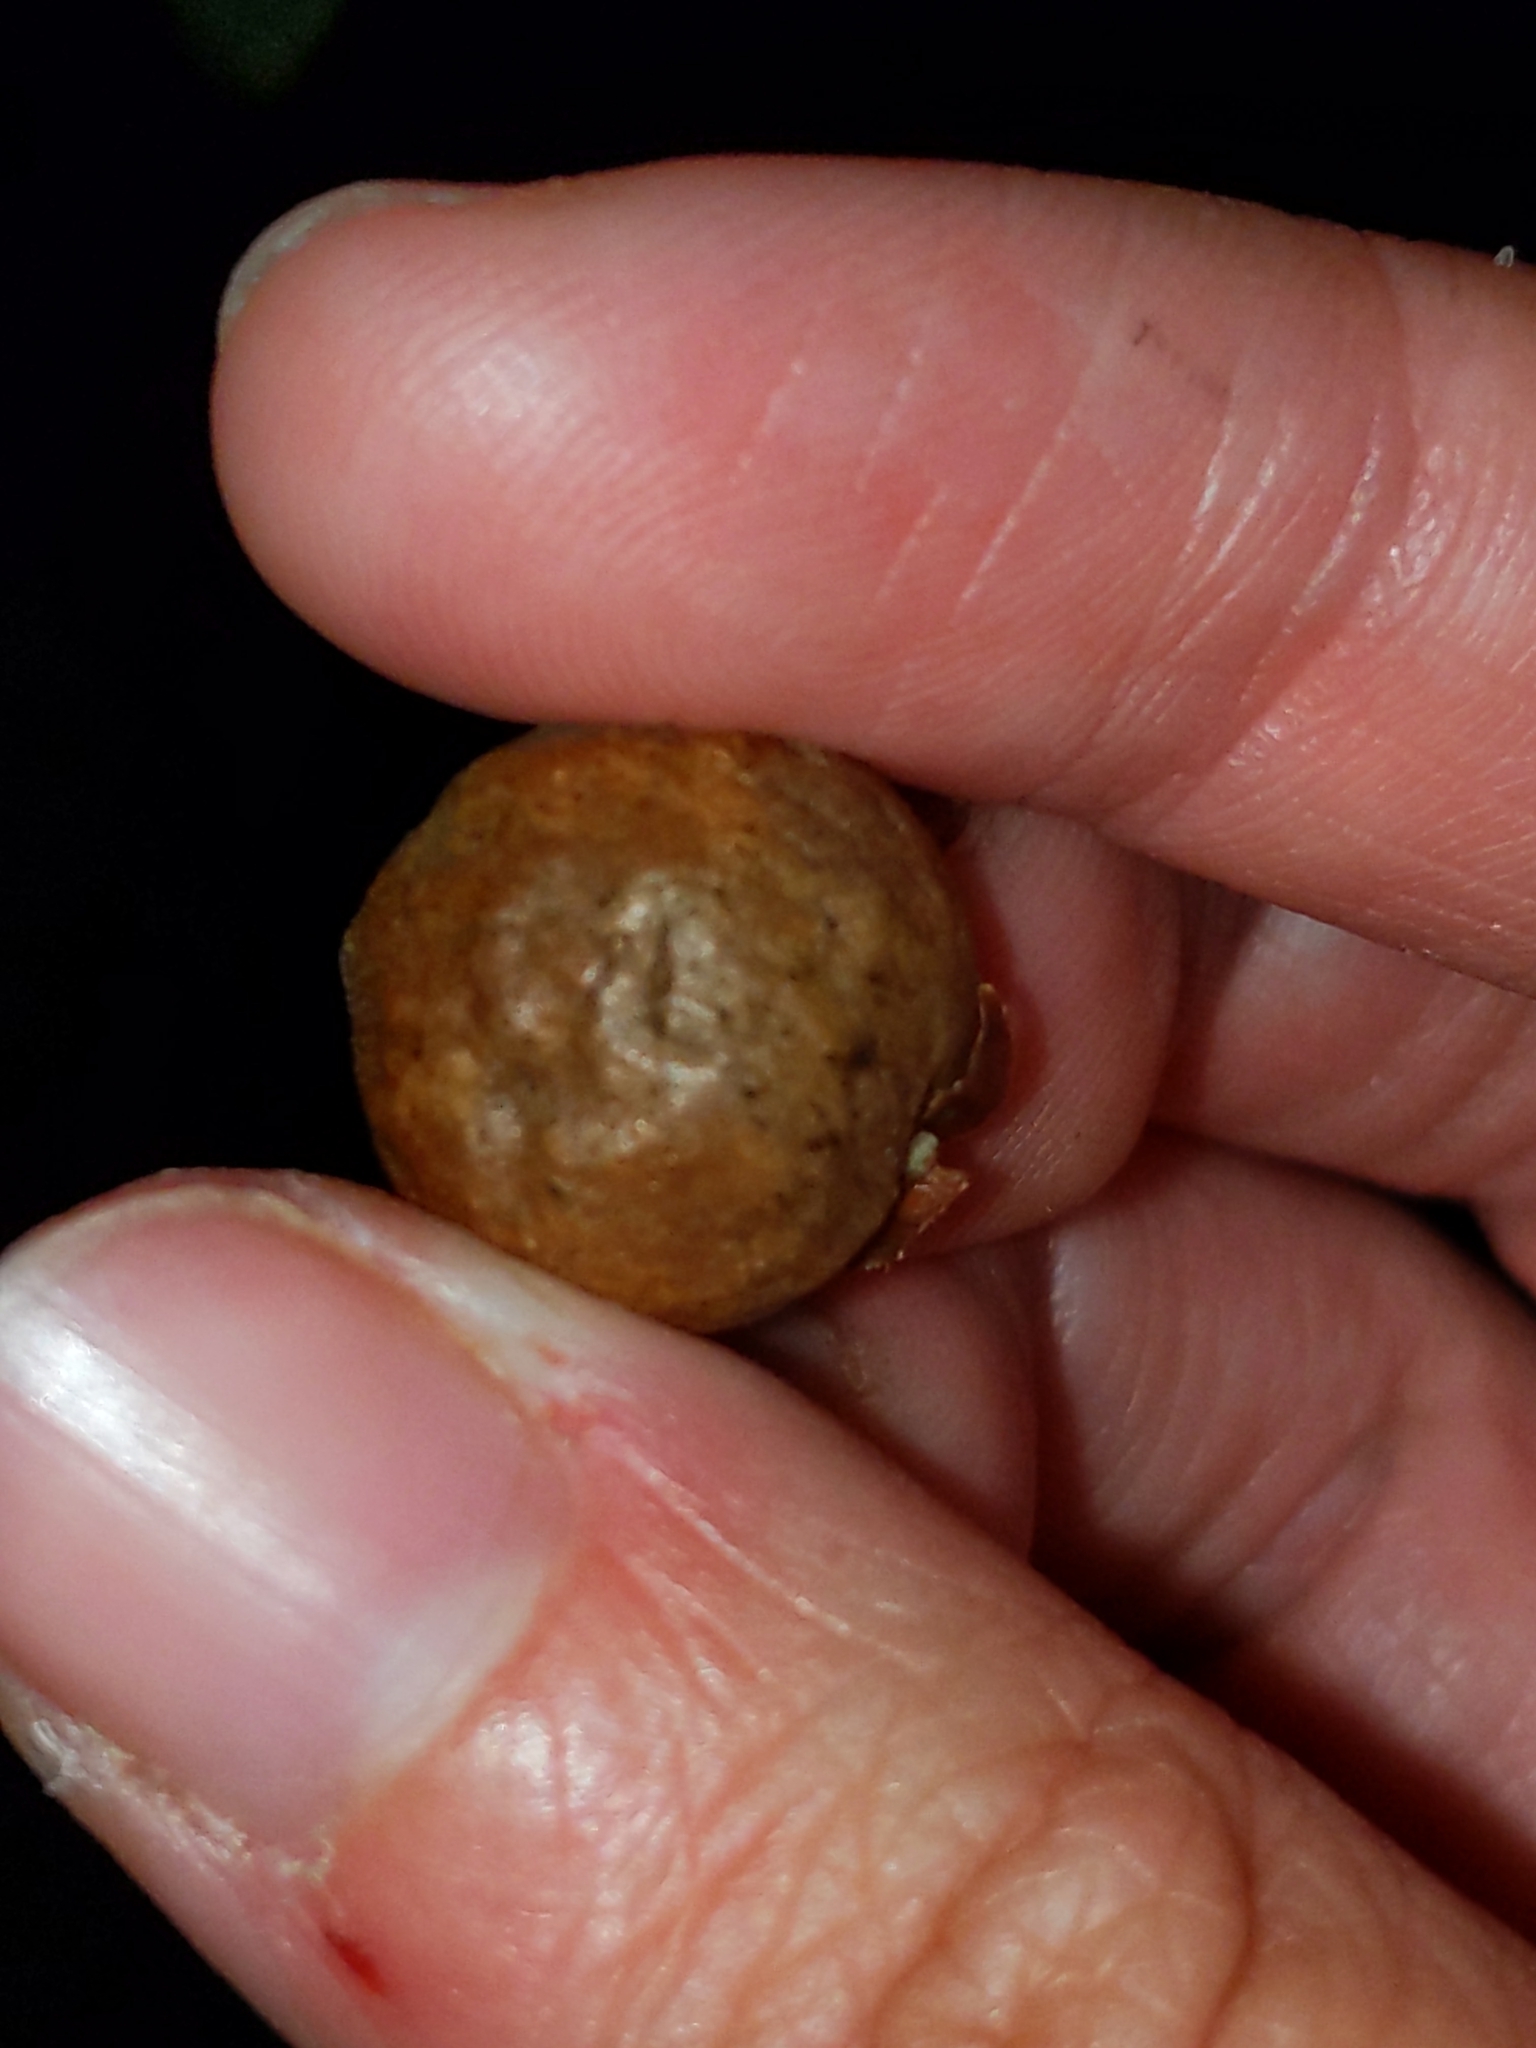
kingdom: Animalia
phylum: Arthropoda
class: Insecta
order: Hymenoptera
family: Cynipidae
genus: Disholcaspis
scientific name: Disholcaspis quercusglobulus
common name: Round bullet gall wasp
